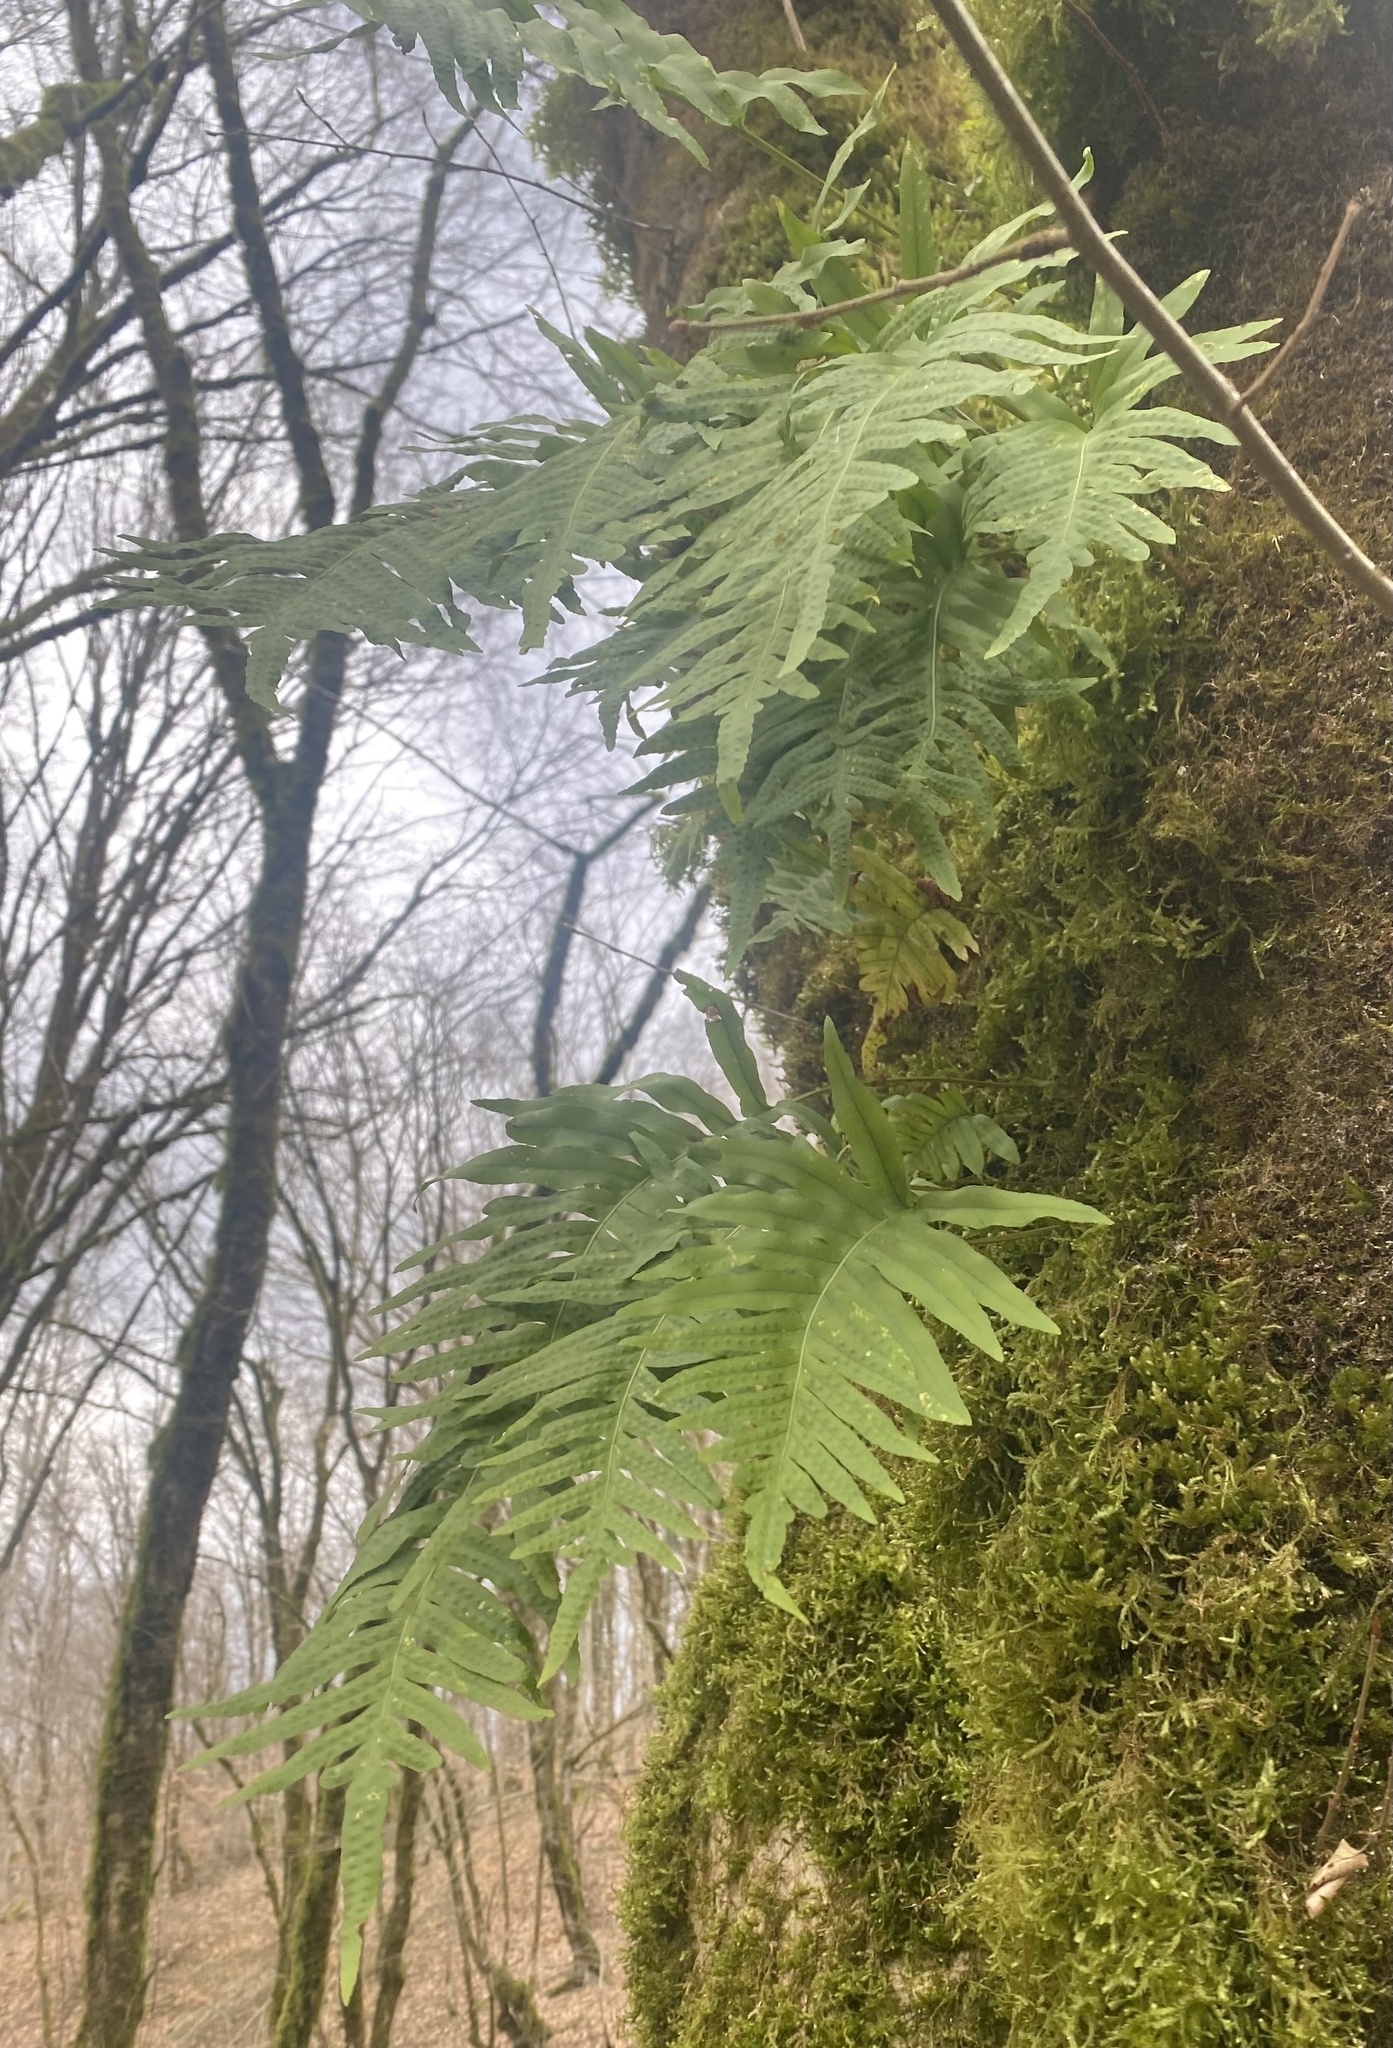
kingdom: Plantae
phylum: Tracheophyta
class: Polypodiopsida
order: Polypodiales
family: Polypodiaceae
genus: Polypodium
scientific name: Polypodium cambricum
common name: Southern polypody
